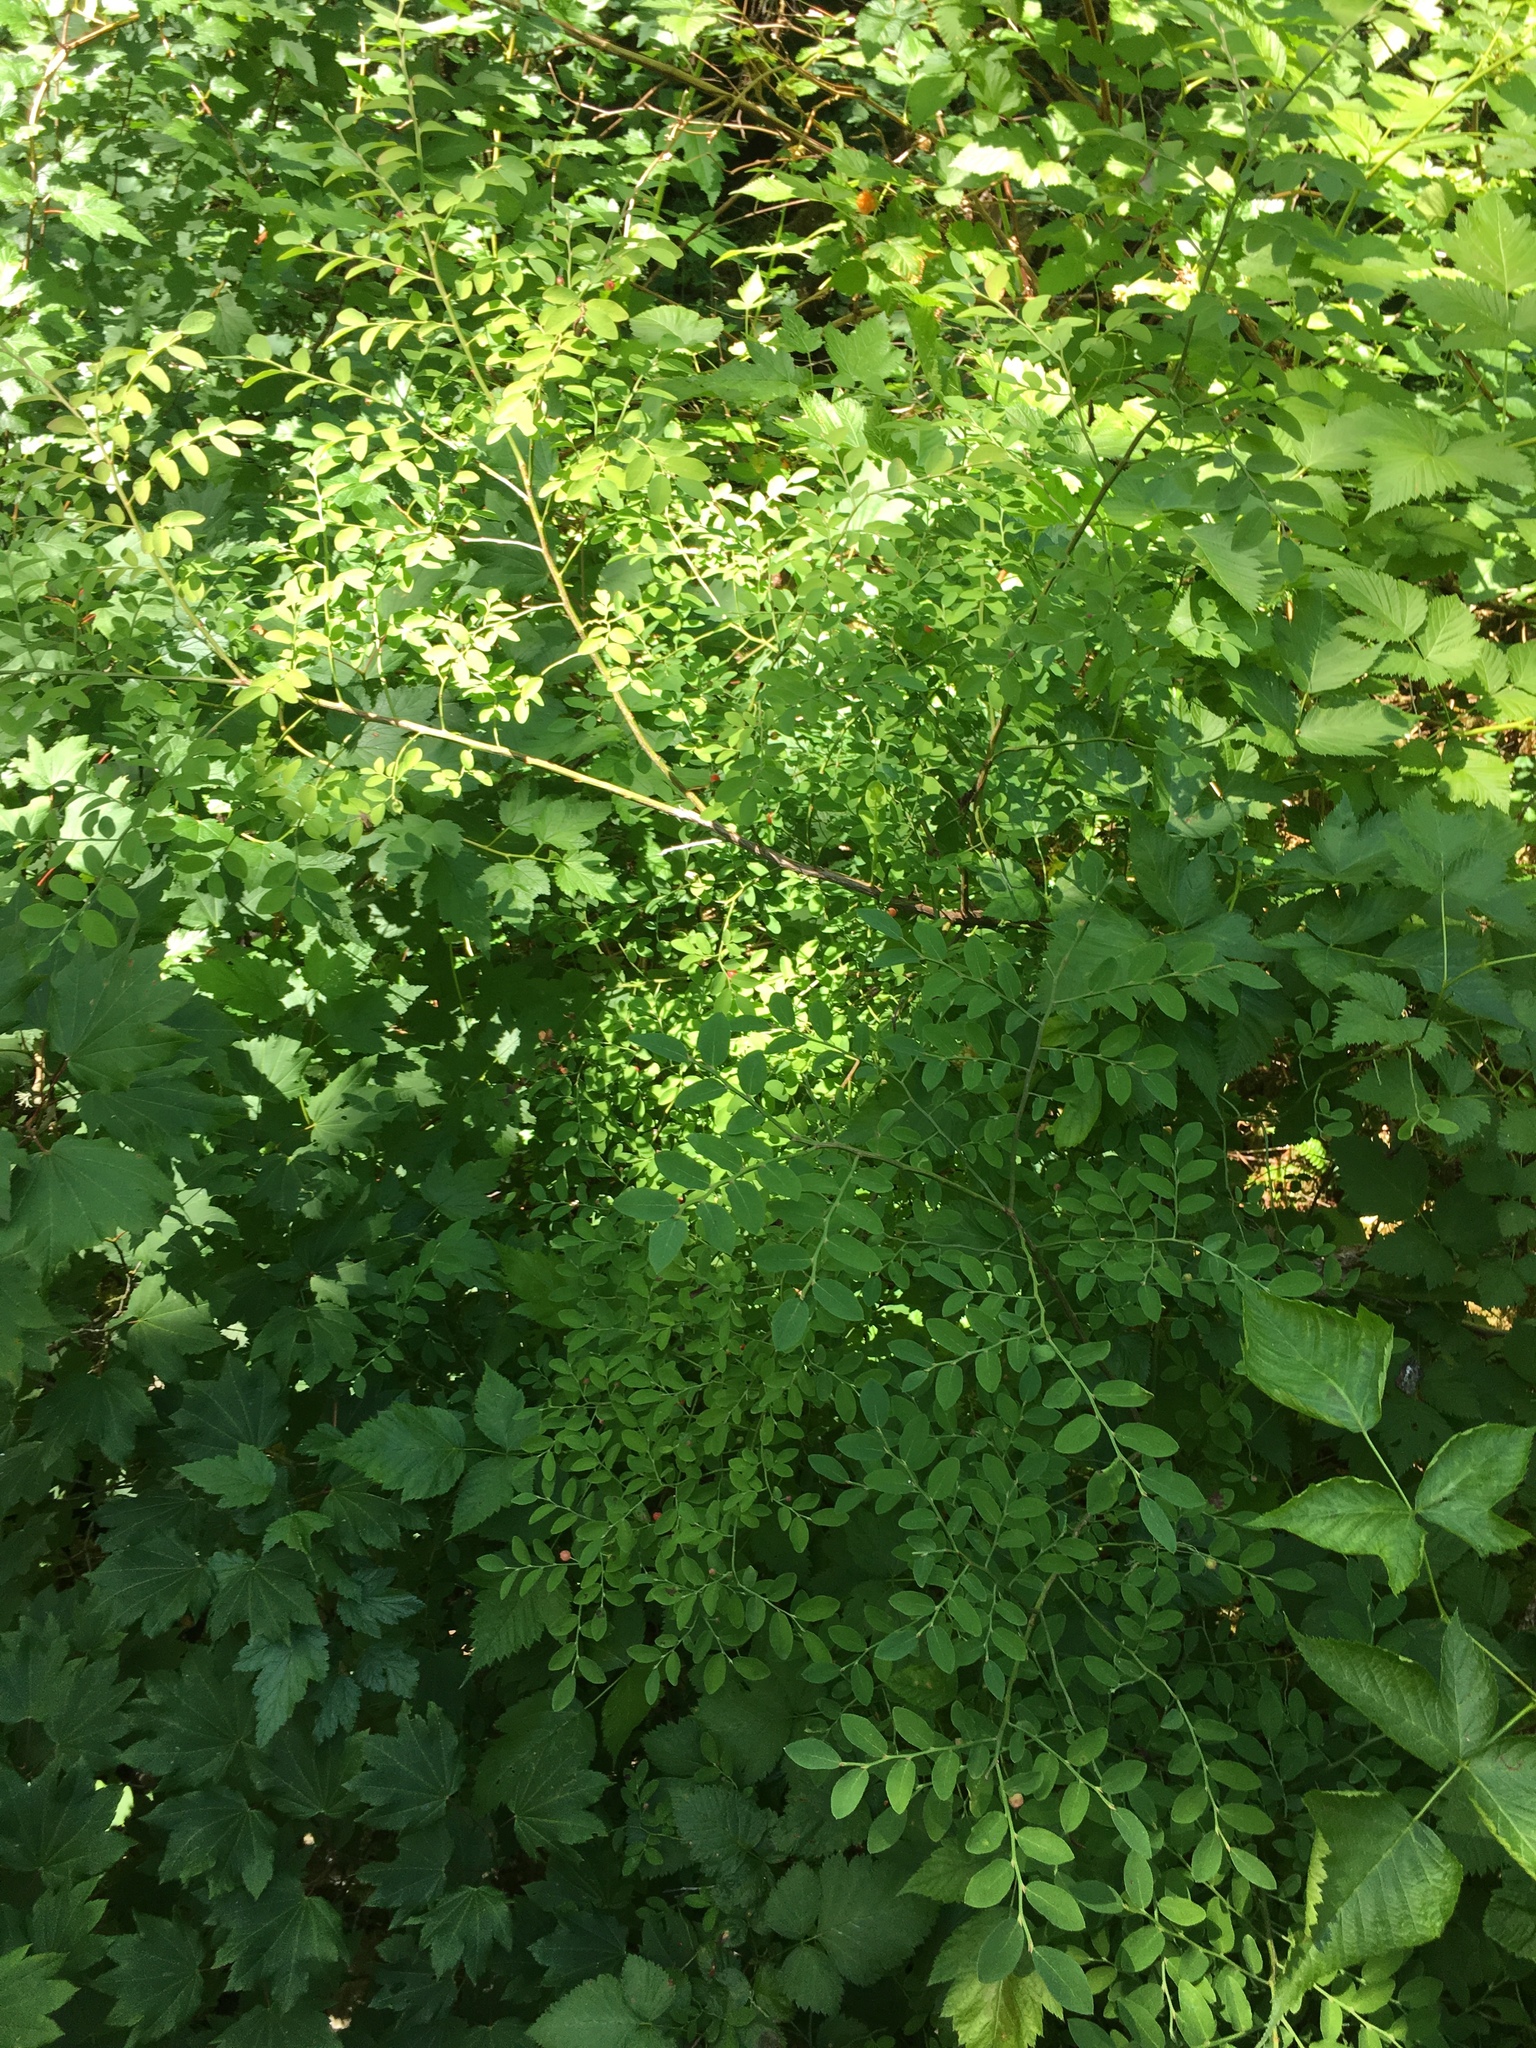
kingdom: Plantae
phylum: Tracheophyta
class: Magnoliopsida
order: Ericales
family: Ericaceae
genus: Vaccinium
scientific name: Vaccinium parvifolium
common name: Red-huckleberry
